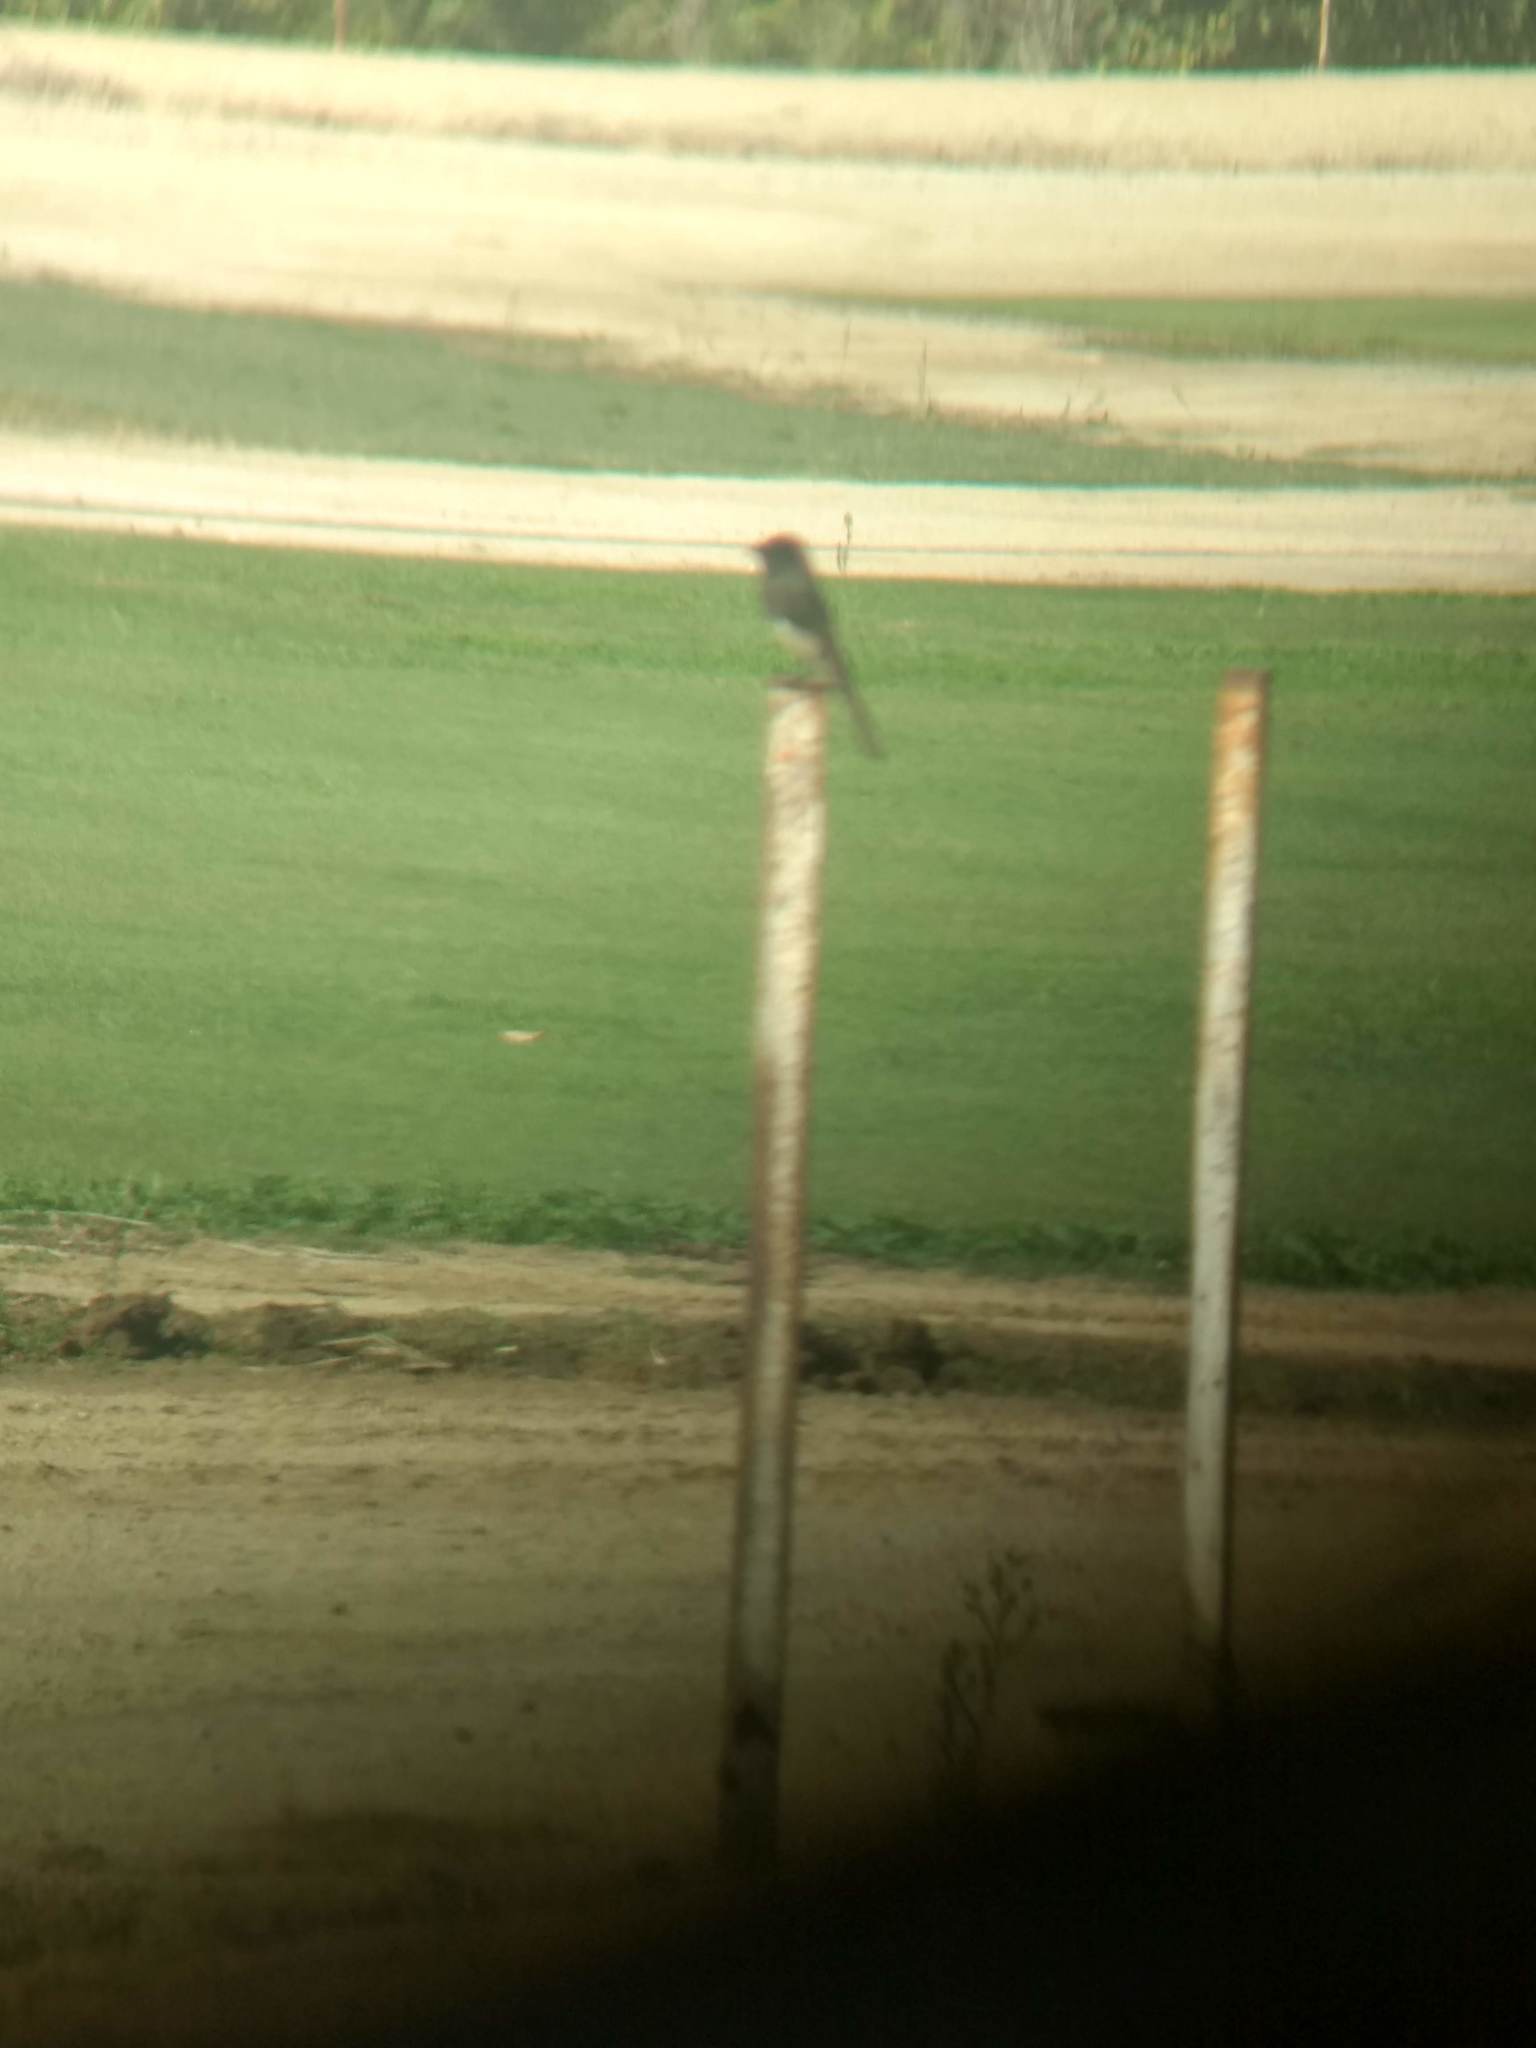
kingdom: Animalia
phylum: Chordata
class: Aves
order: Passeriformes
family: Tyrannidae
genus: Sayornis
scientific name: Sayornis nigricans
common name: Black phoebe
